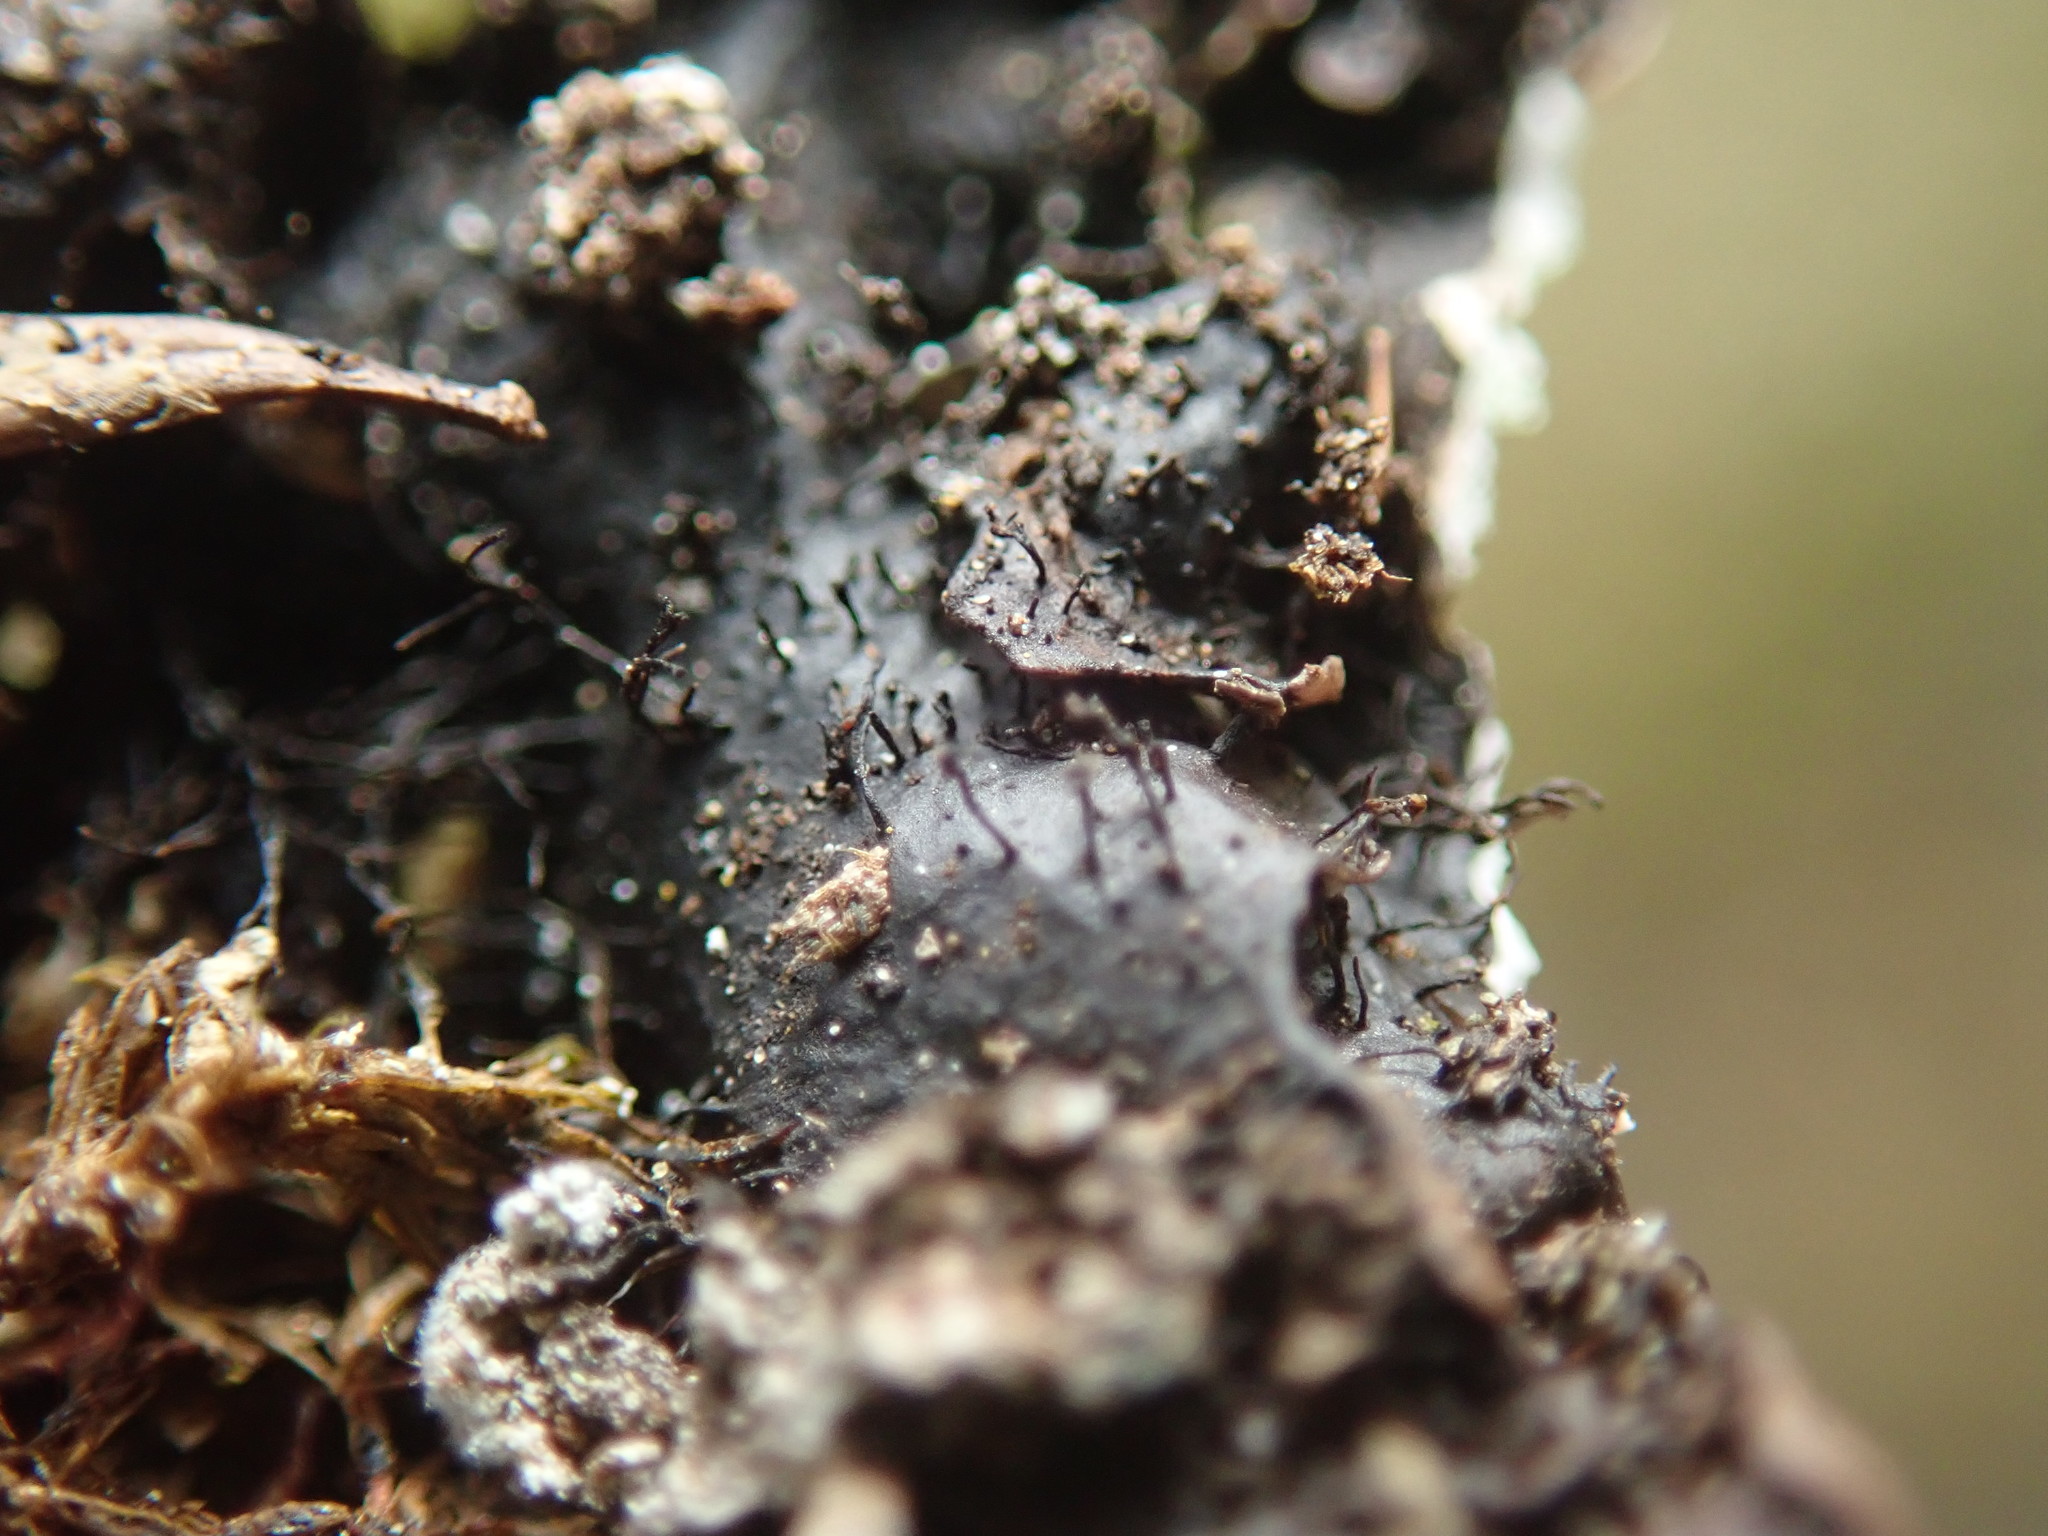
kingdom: Fungi
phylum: Ascomycota
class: Lecanoromycetes
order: Lecanorales
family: Parmeliaceae
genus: Parmelia
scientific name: Parmelia saxatilis
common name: Salted shield lichen
